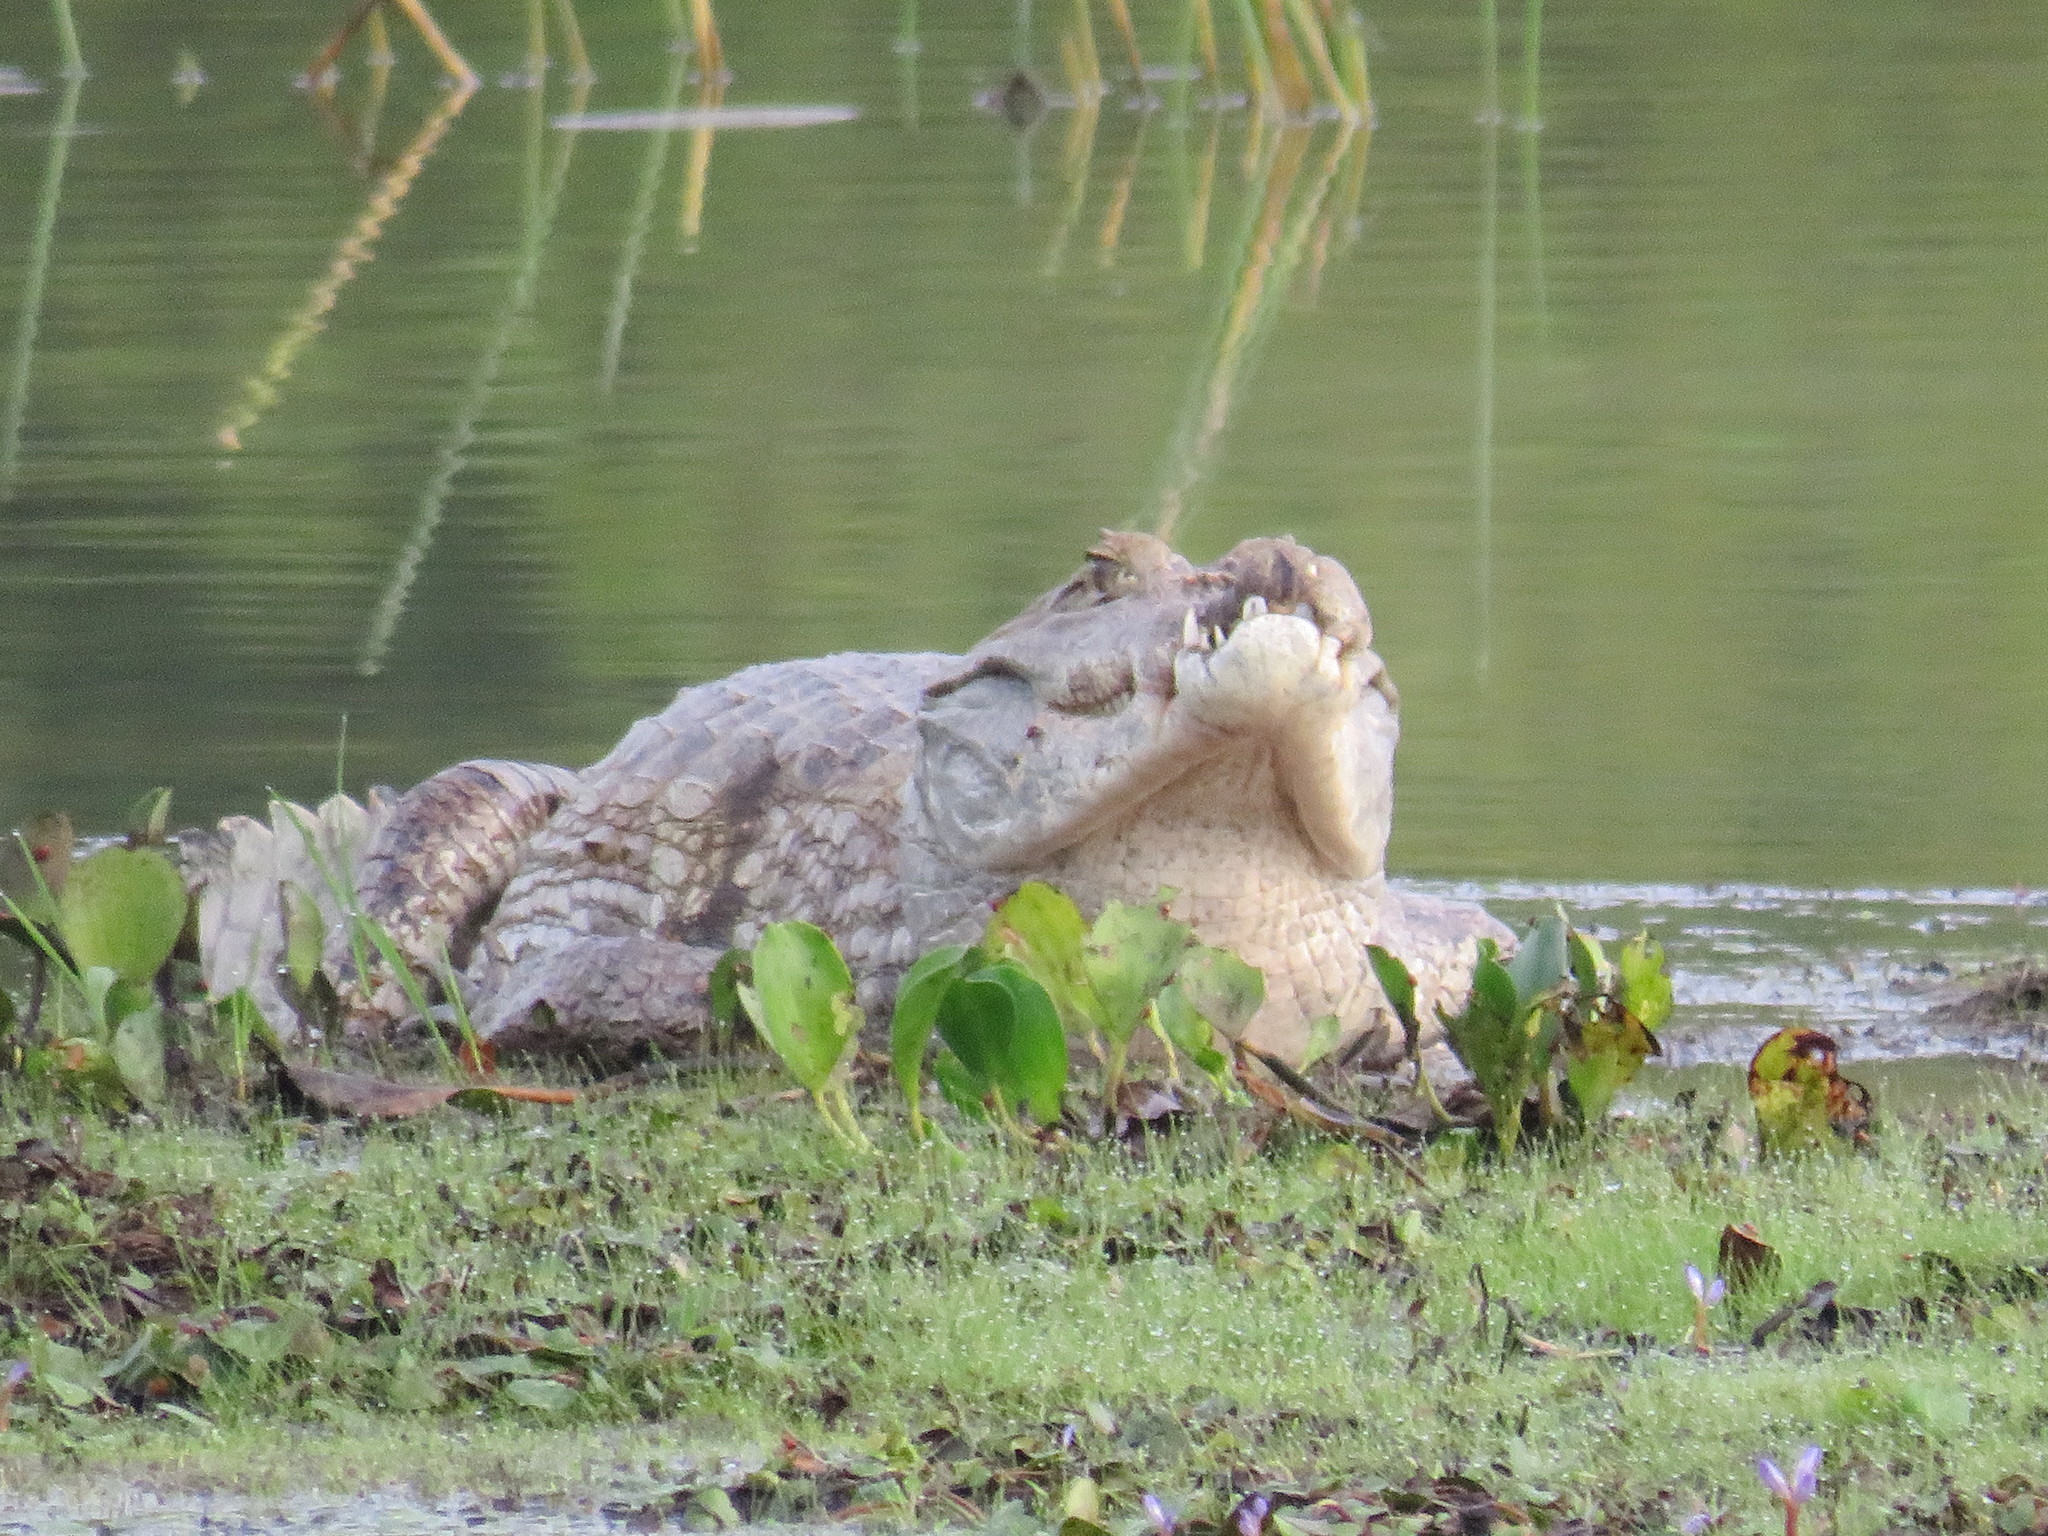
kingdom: Animalia
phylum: Chordata
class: Crocodylia
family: Alligatoridae
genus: Caiman
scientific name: Caiman crocodilus
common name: Common caiman
